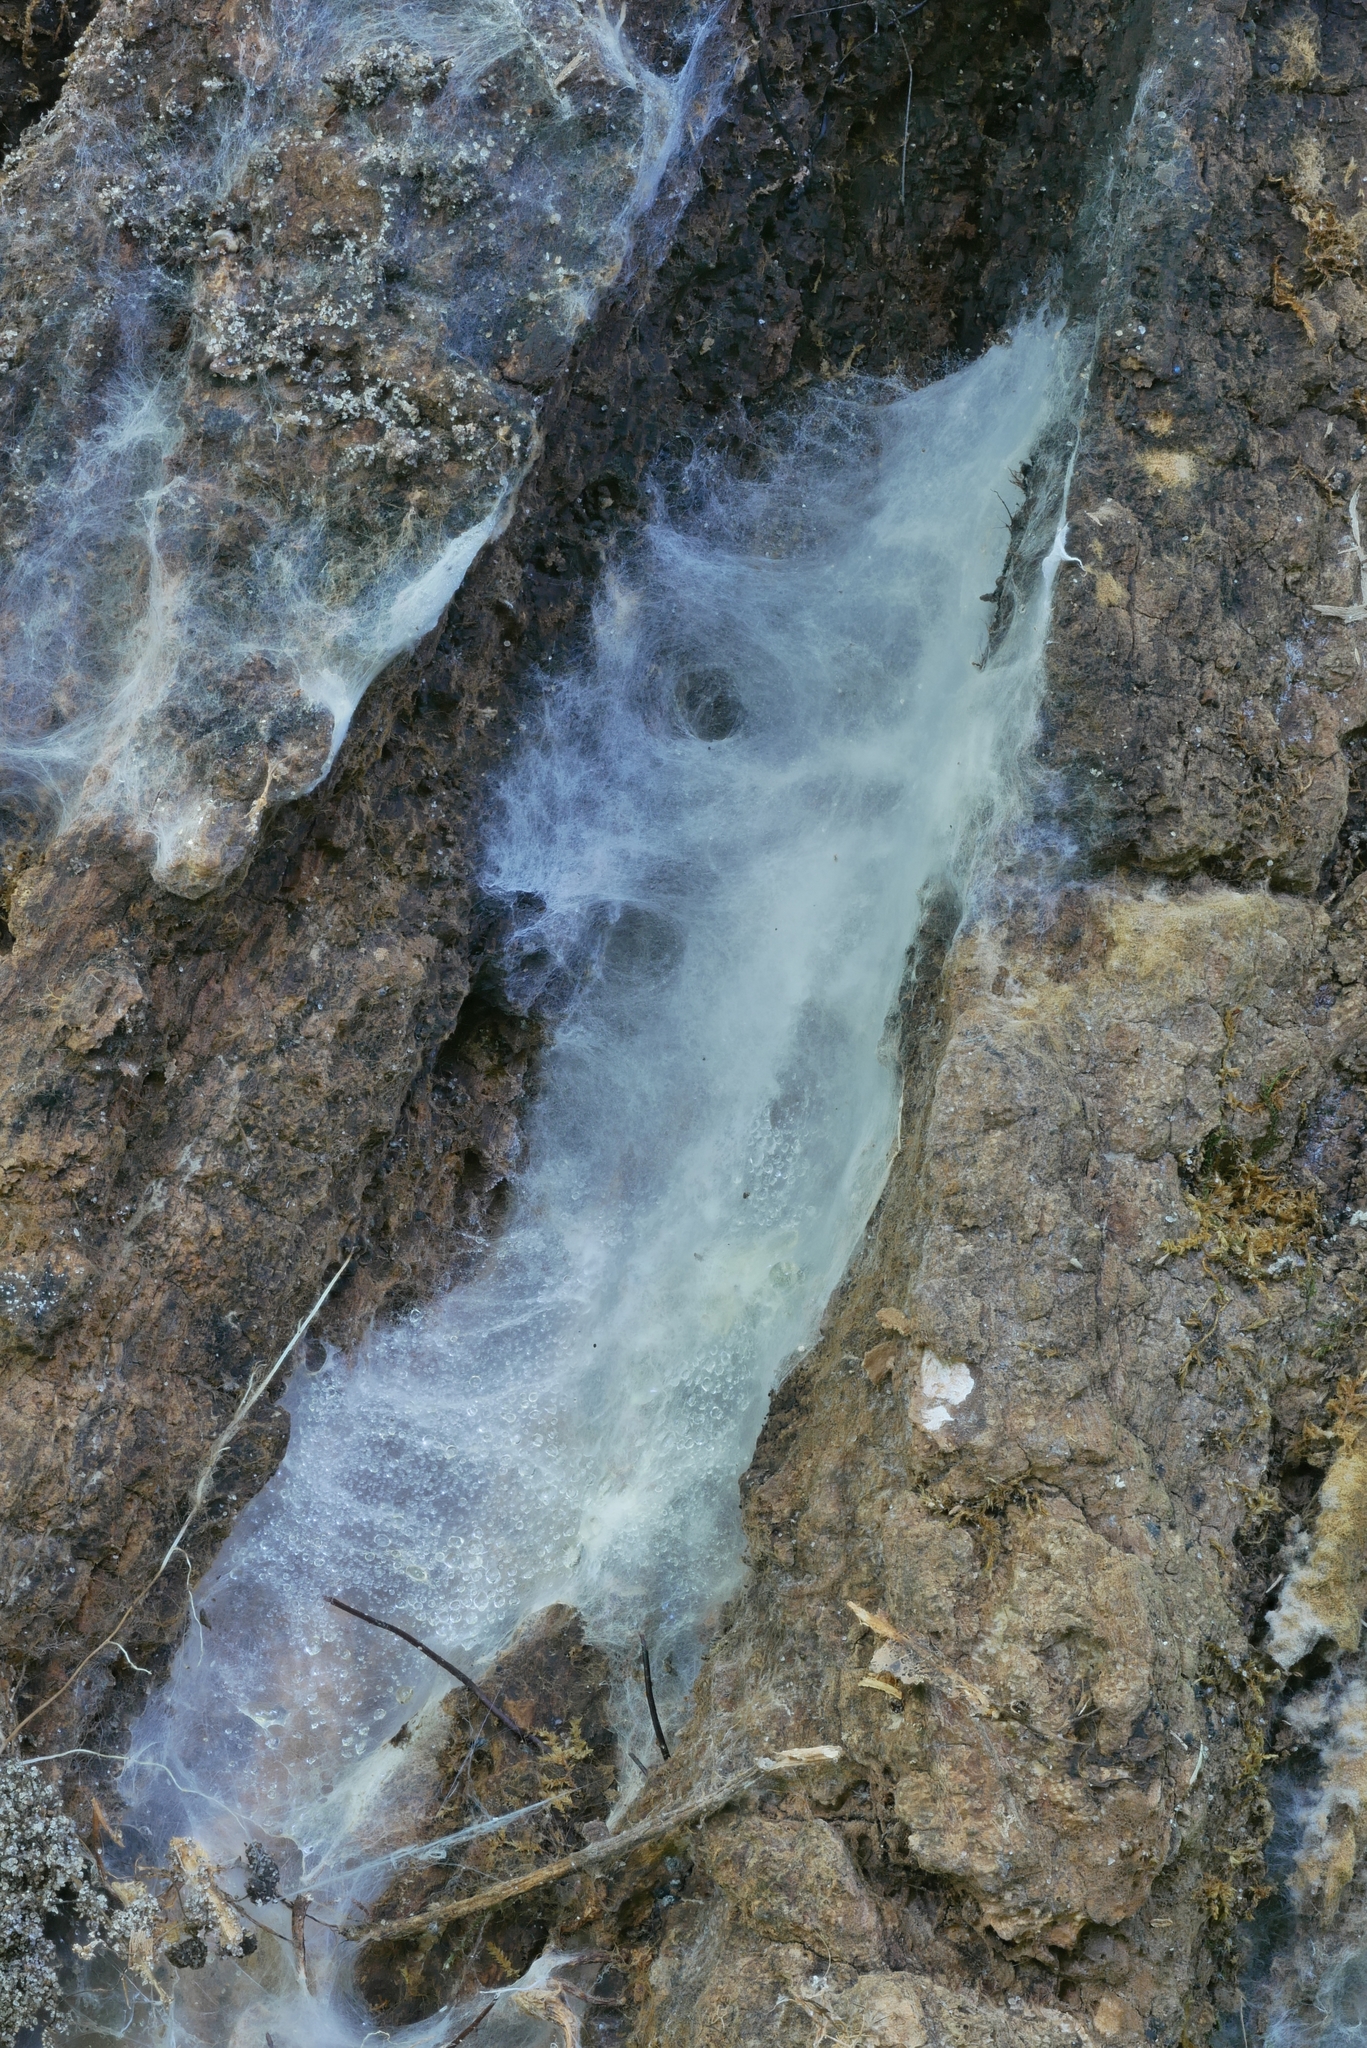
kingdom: Fungi
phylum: Basidiomycota
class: Agaricomycetes
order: Agaricales
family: Tricholomataceae
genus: Collybia
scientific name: Collybia
